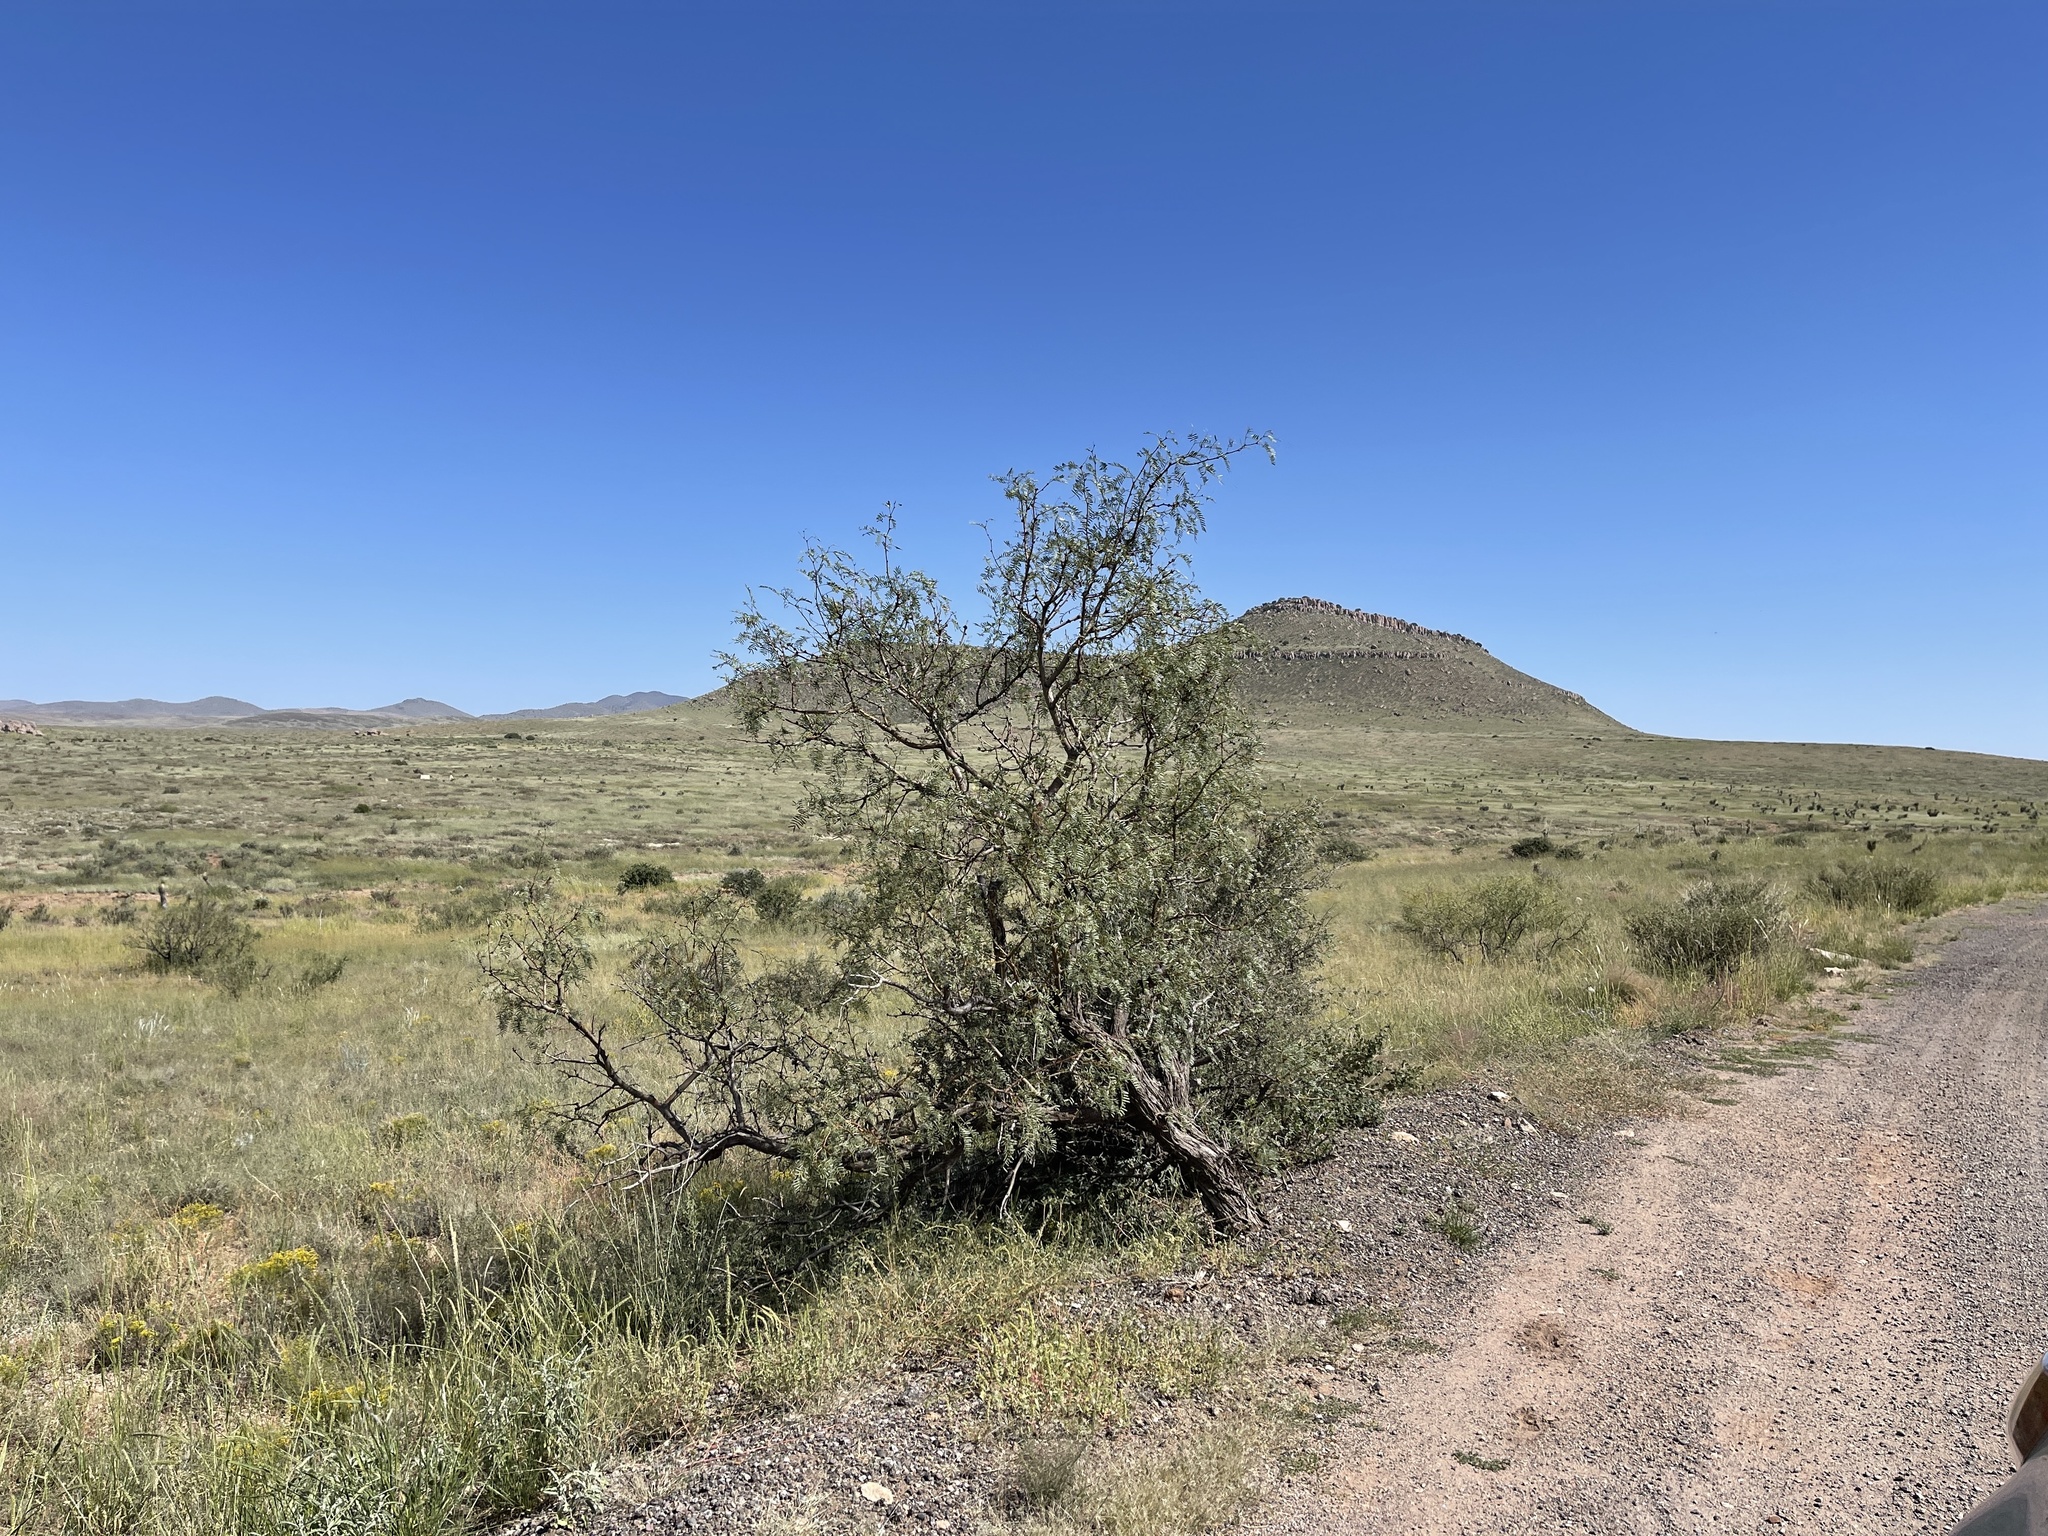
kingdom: Plantae
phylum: Tracheophyta
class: Magnoliopsida
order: Fabales
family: Fabaceae
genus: Prosopis
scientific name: Prosopis glandulosa
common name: Honey mesquite
